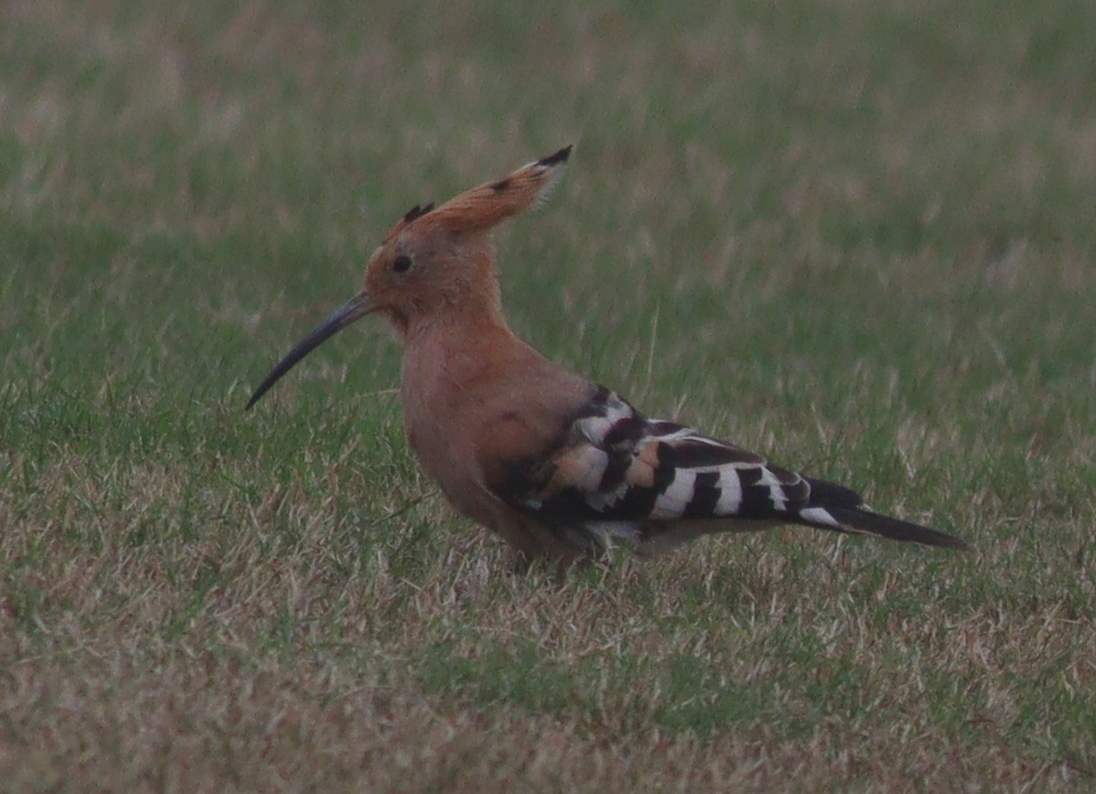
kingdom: Animalia
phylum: Chordata
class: Aves
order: Bucerotiformes
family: Upupidae
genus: Upupa
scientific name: Upupa epops
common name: Eurasian hoopoe
